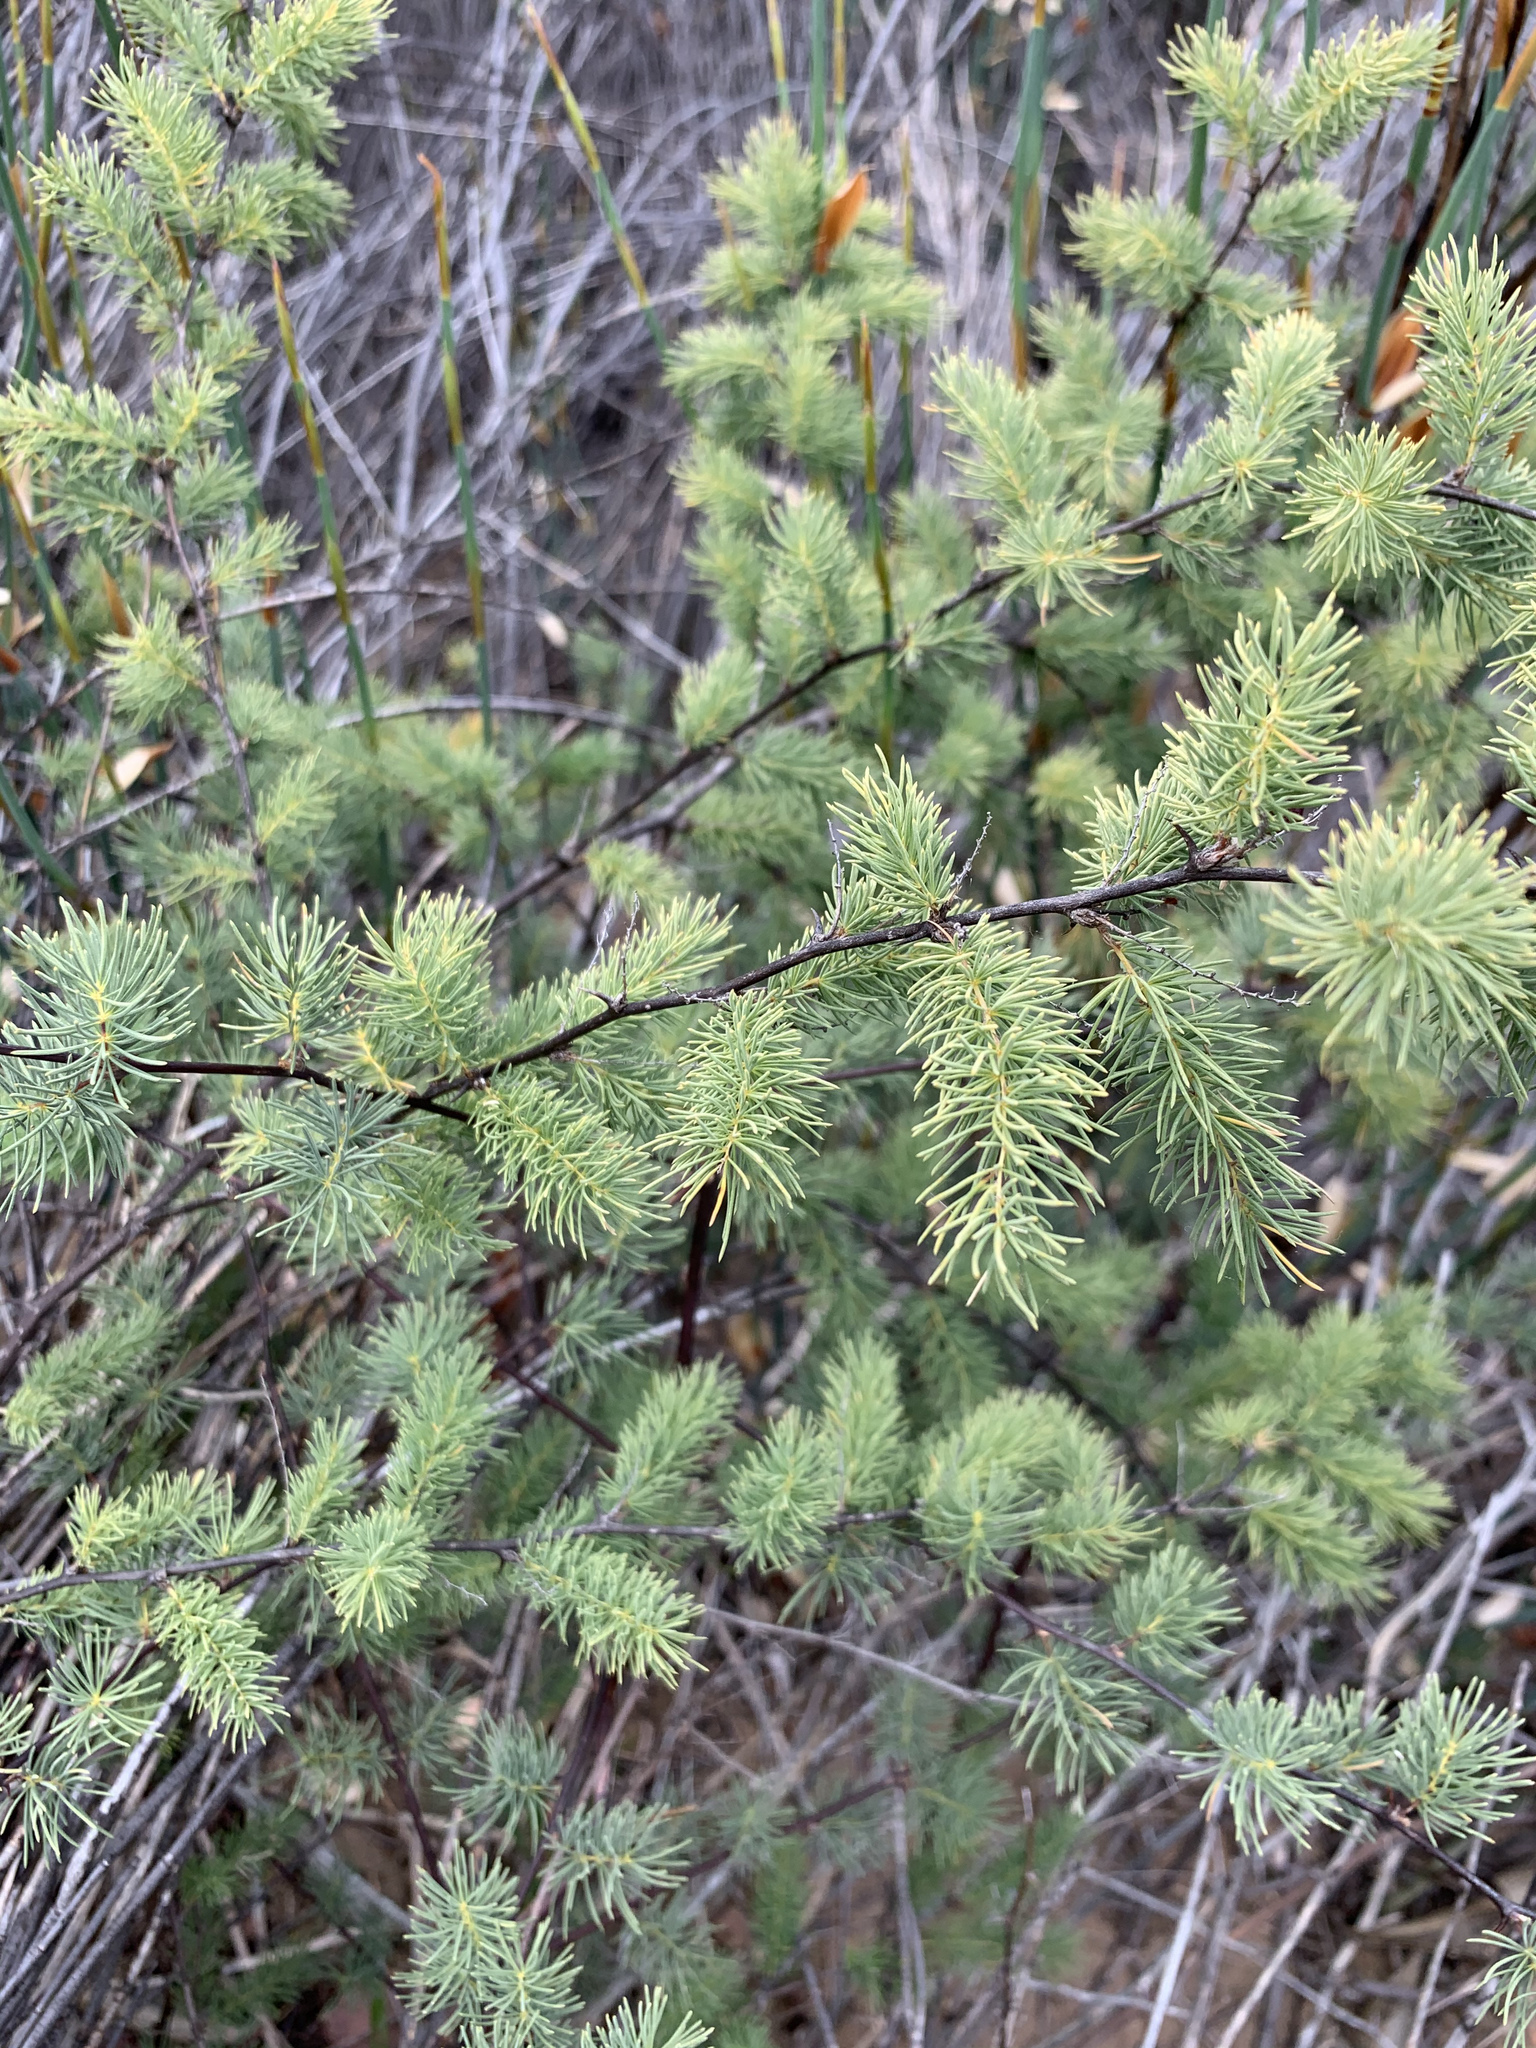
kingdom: Plantae
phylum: Tracheophyta
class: Liliopsida
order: Asparagales
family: Asparagaceae
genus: Asparagus
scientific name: Asparagus rubicundus
